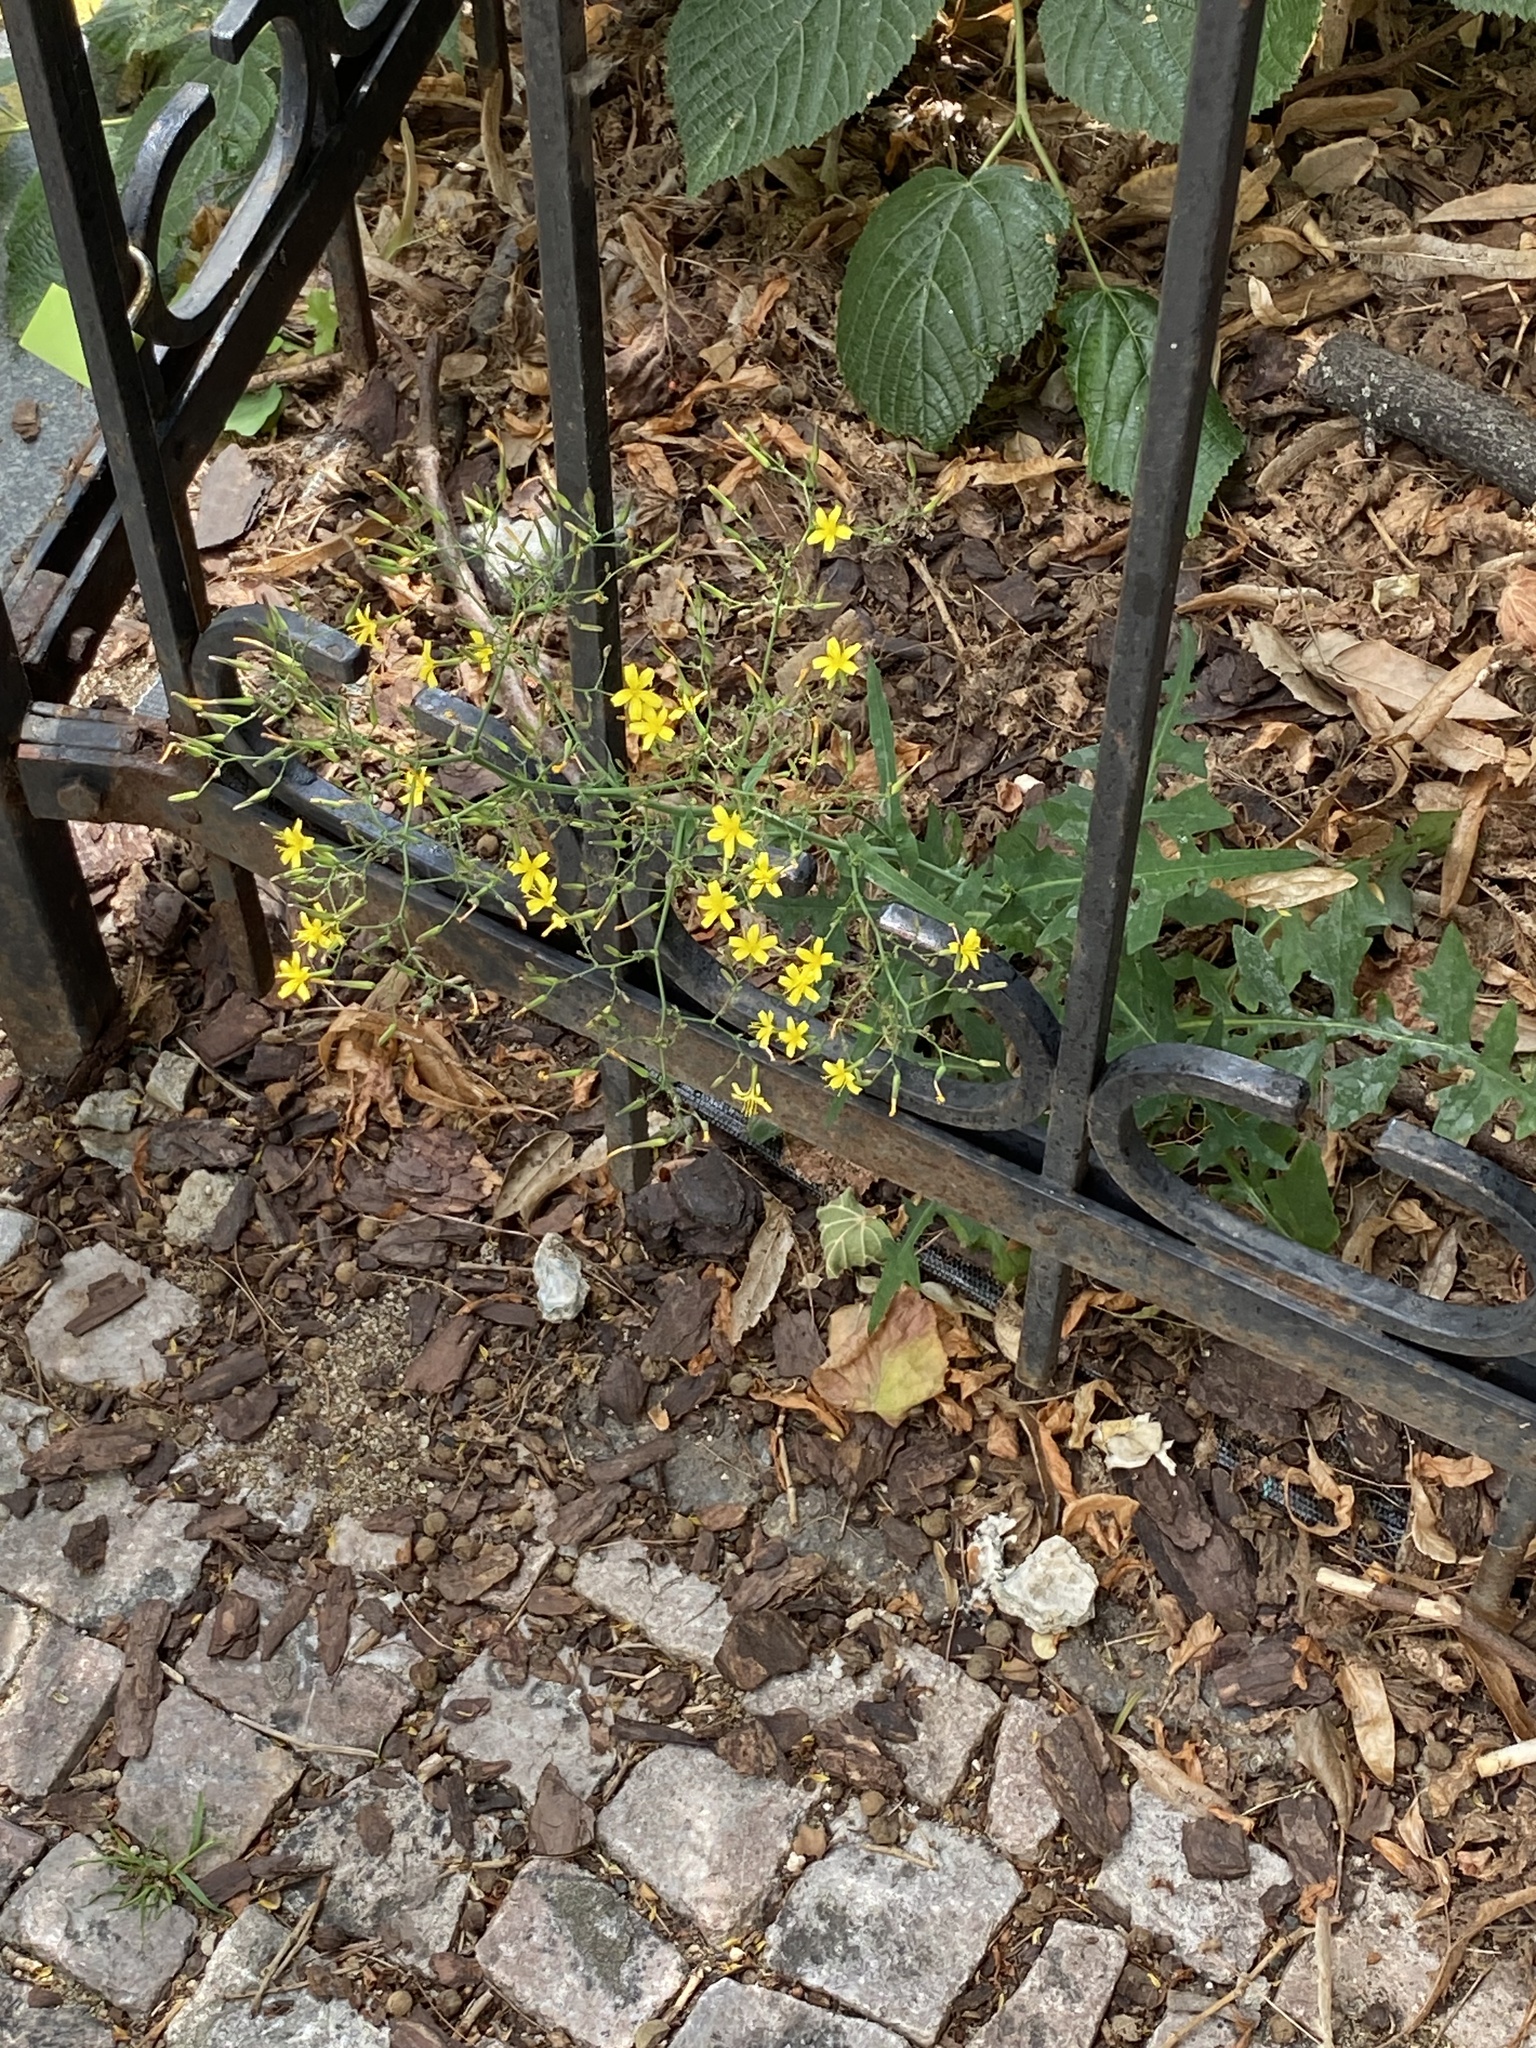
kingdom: Plantae
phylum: Tracheophyta
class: Magnoliopsida
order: Asterales
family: Asteraceae
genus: Mycelis
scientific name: Mycelis muralis
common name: Wall lettuce
